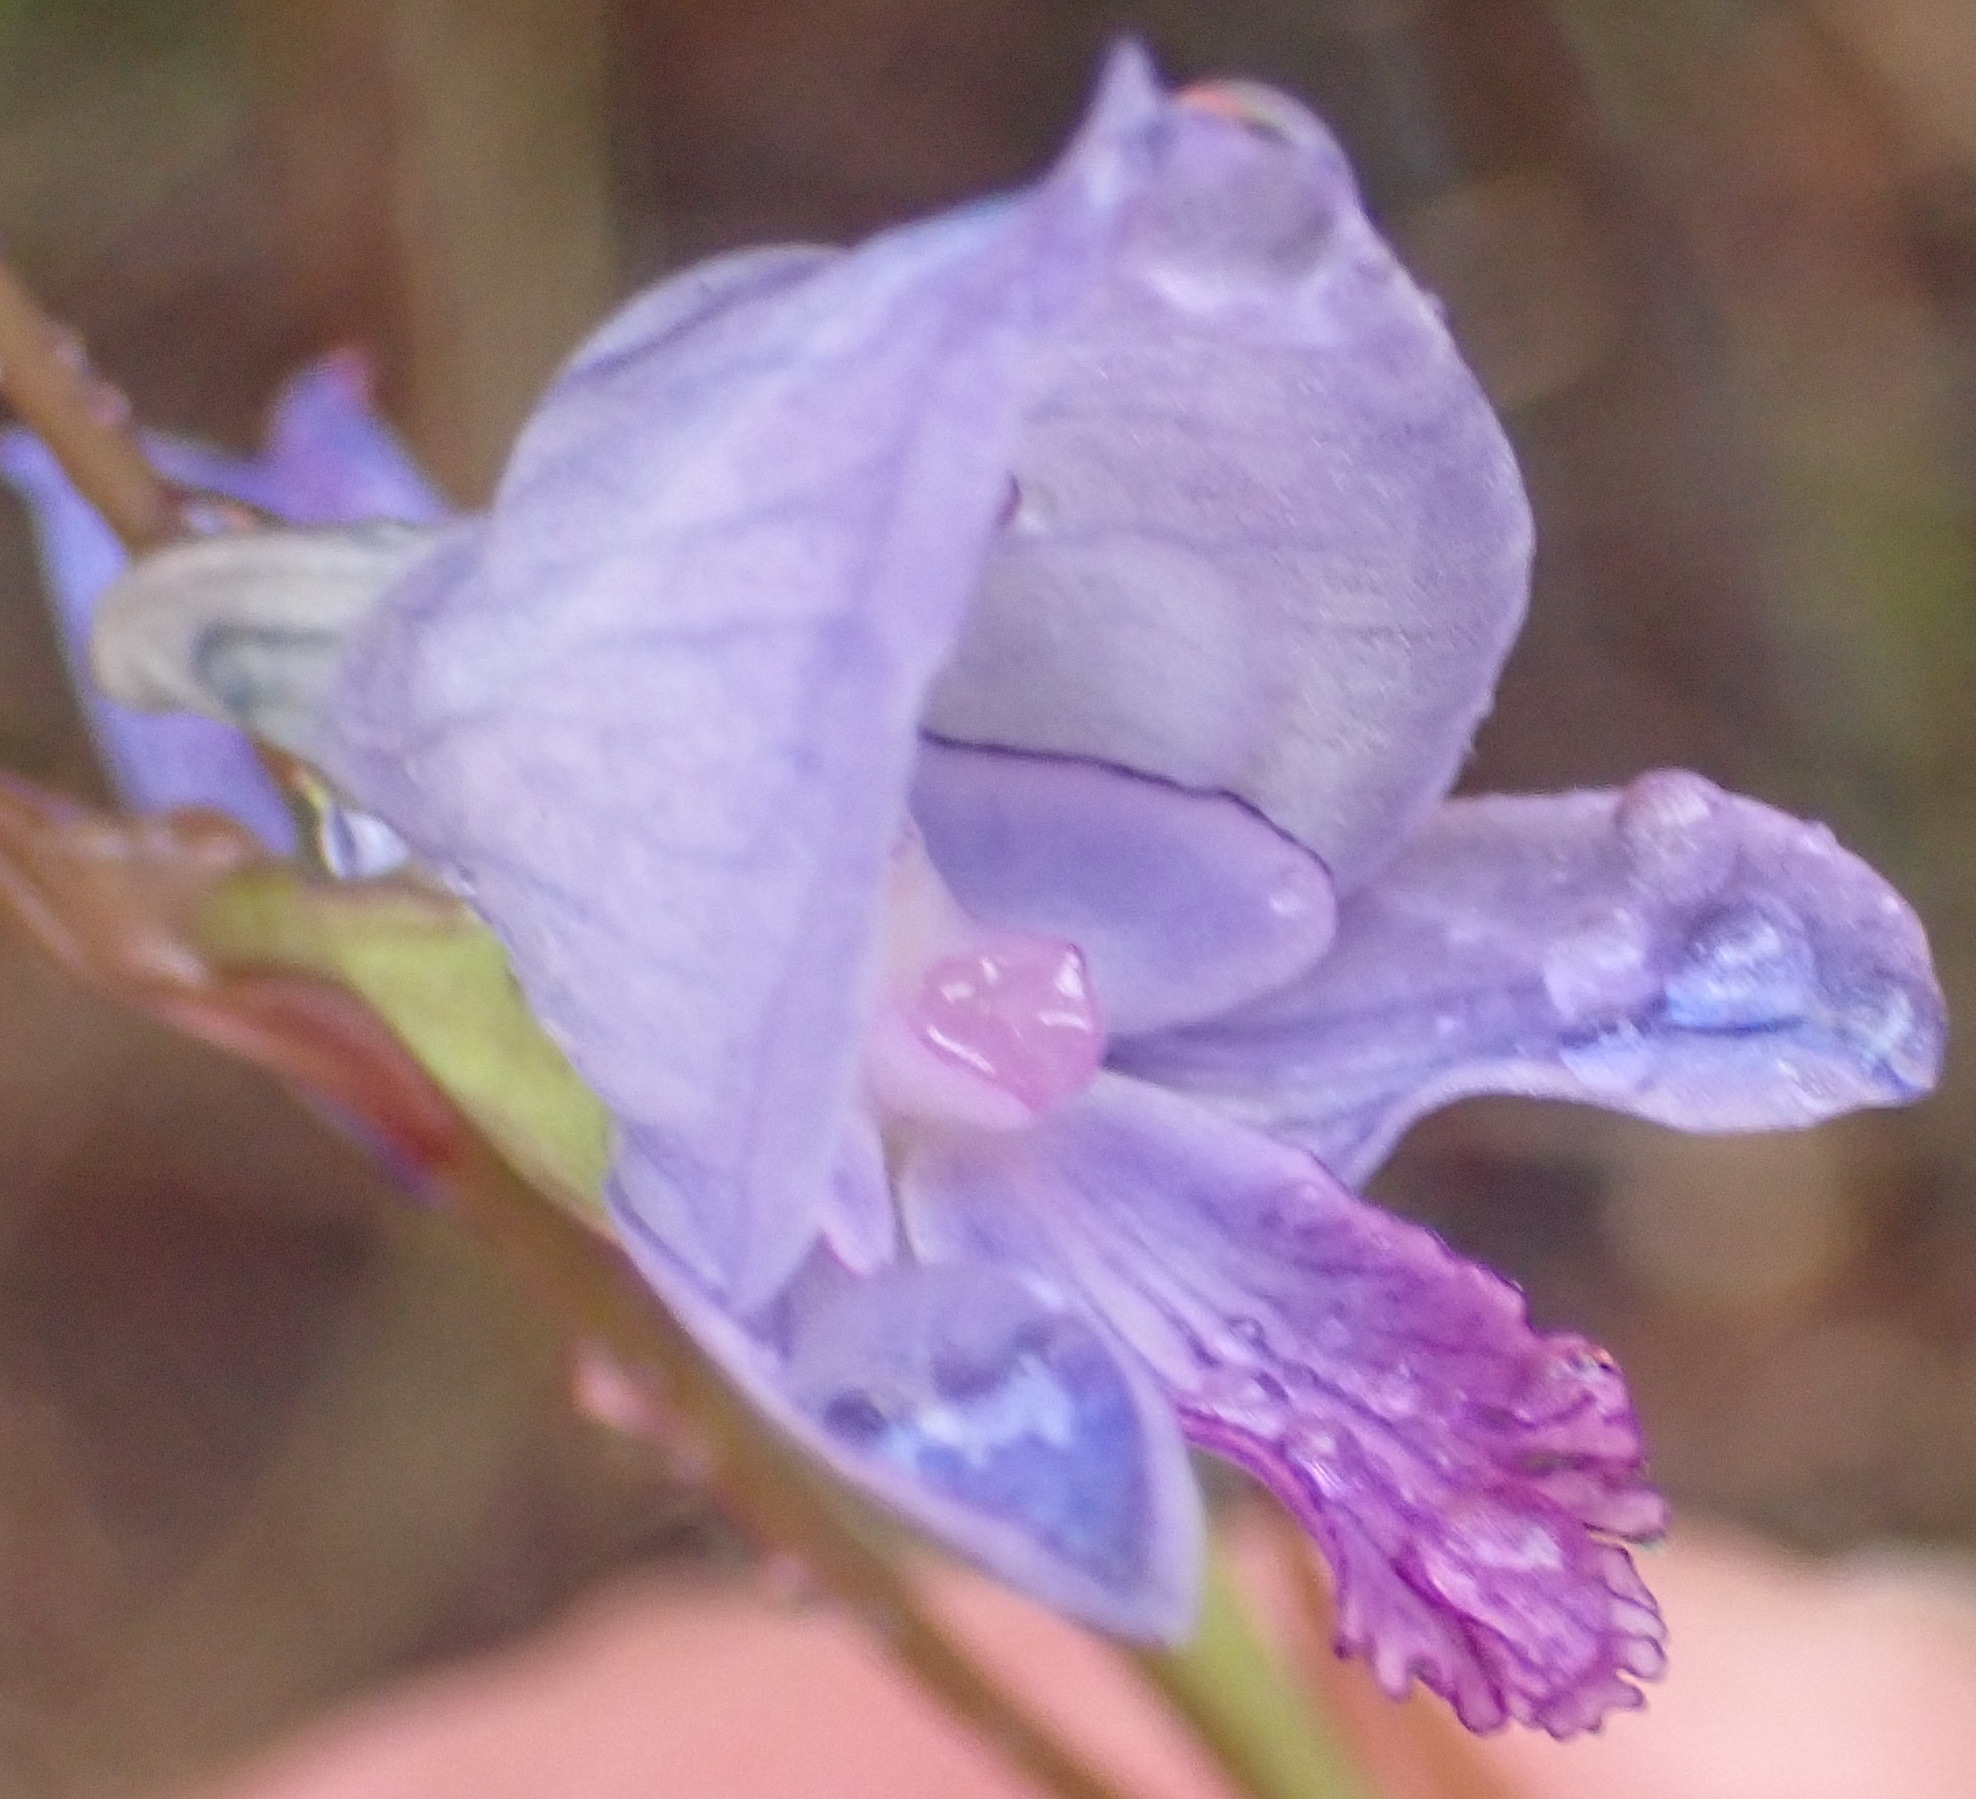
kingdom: Plantae
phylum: Tracheophyta
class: Liliopsida
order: Asparagales
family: Orchidaceae
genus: Disa
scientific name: Disa hians
